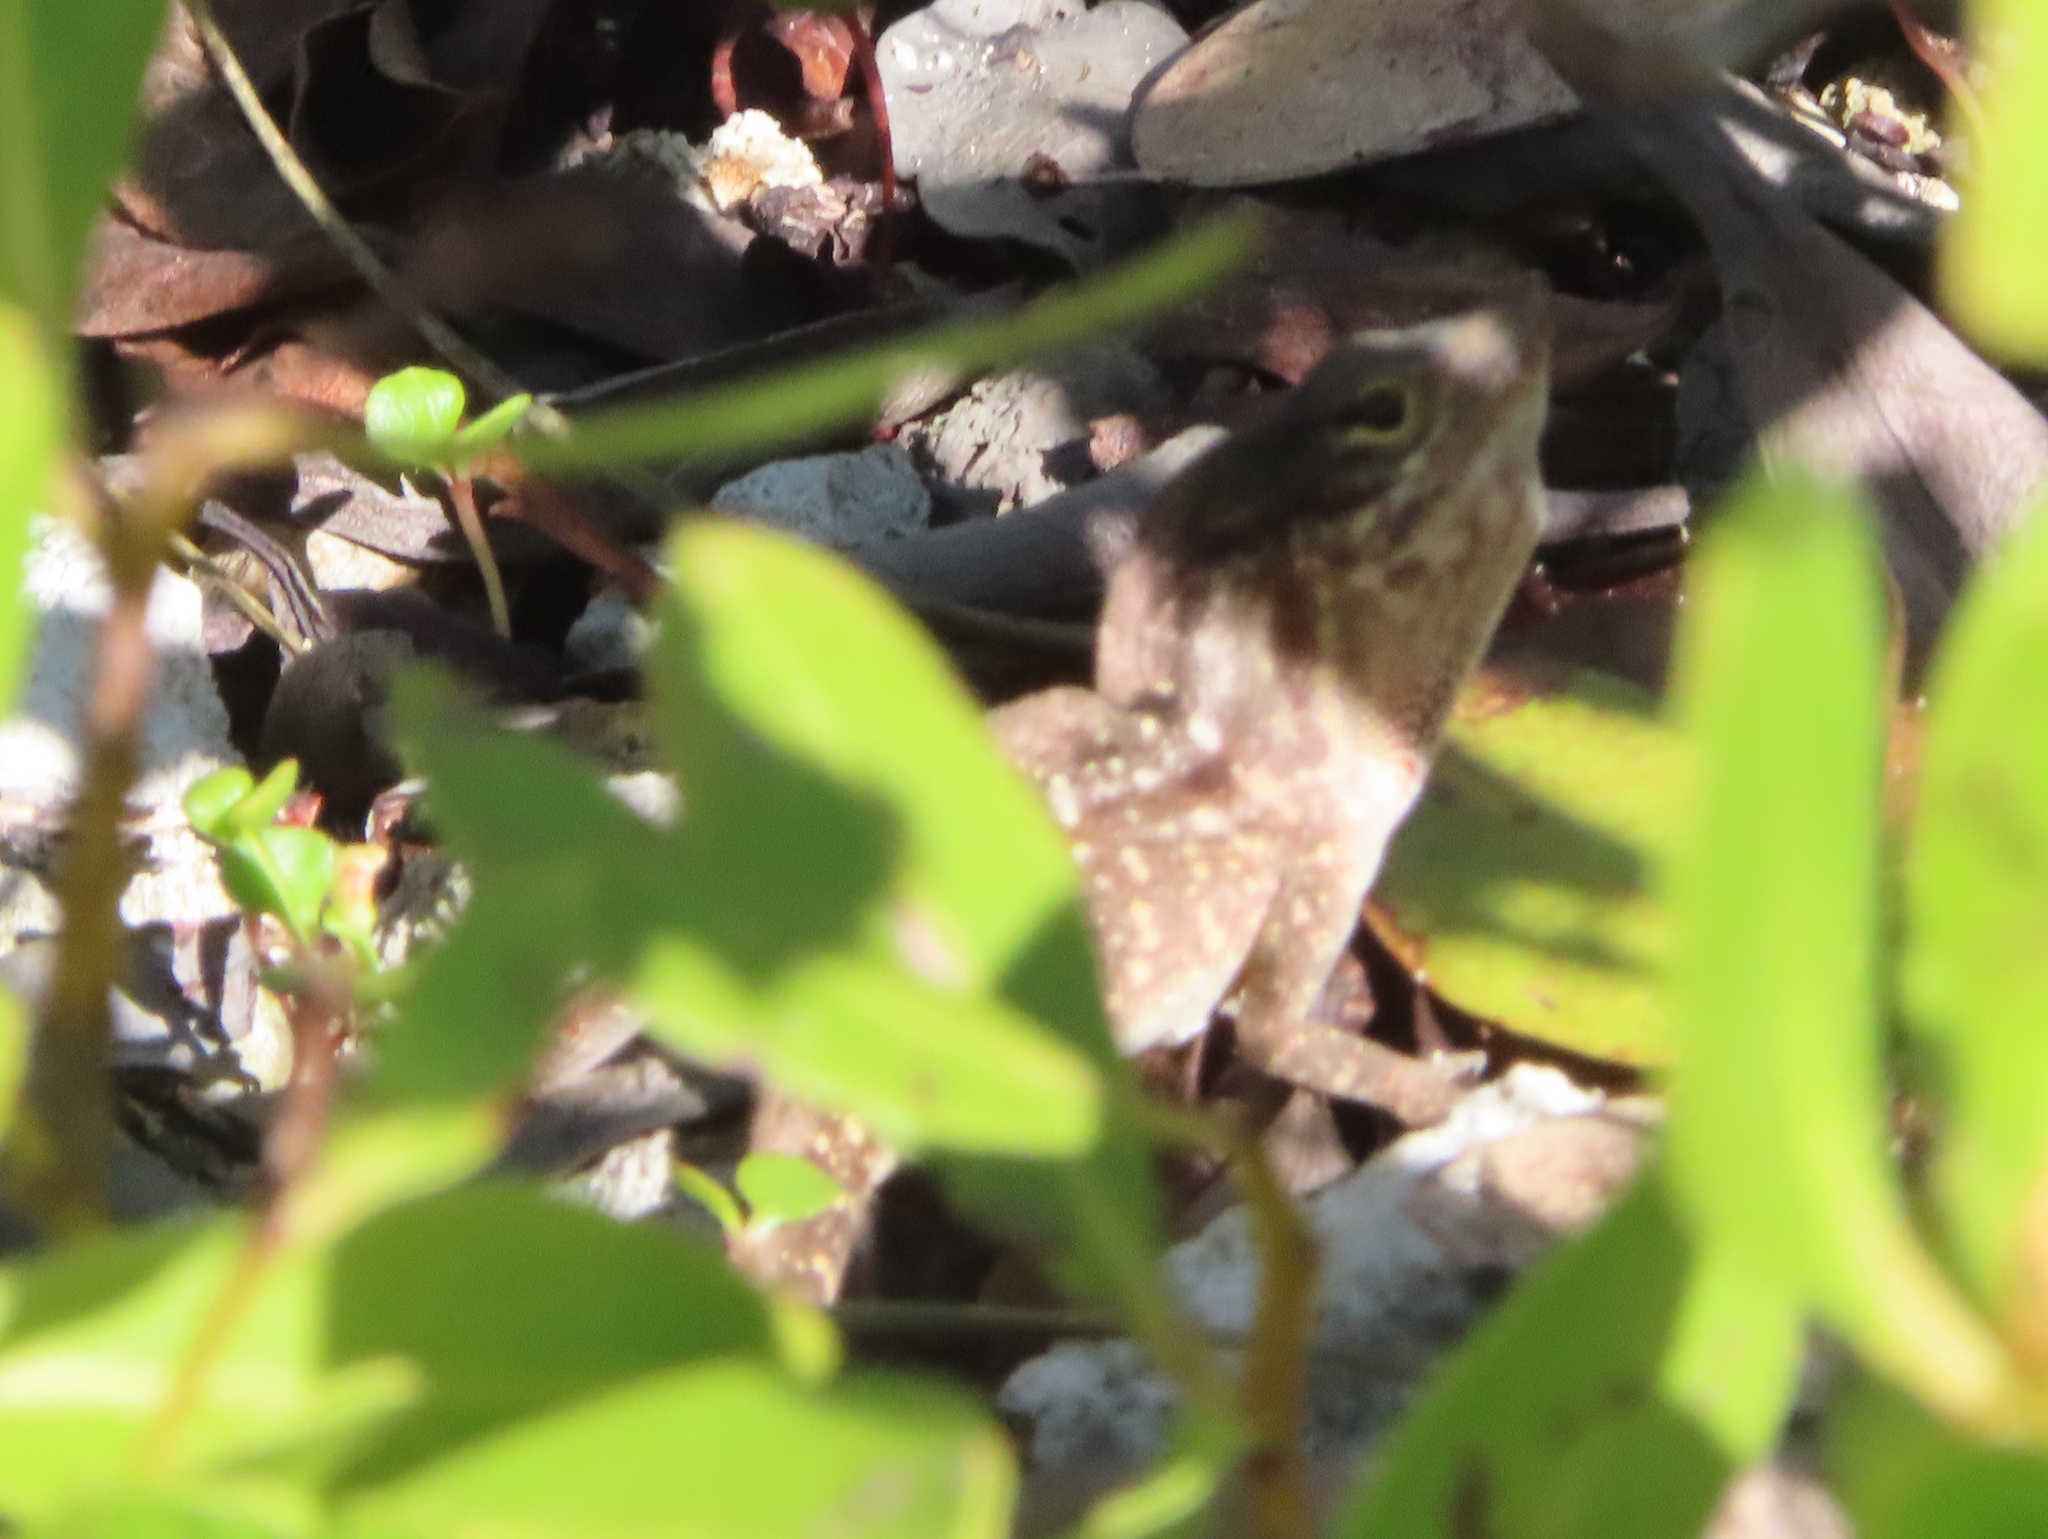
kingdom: Animalia
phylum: Chordata
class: Squamata
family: Dactyloidae
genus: Anolis
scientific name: Anolis sagrei
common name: Brown anole
